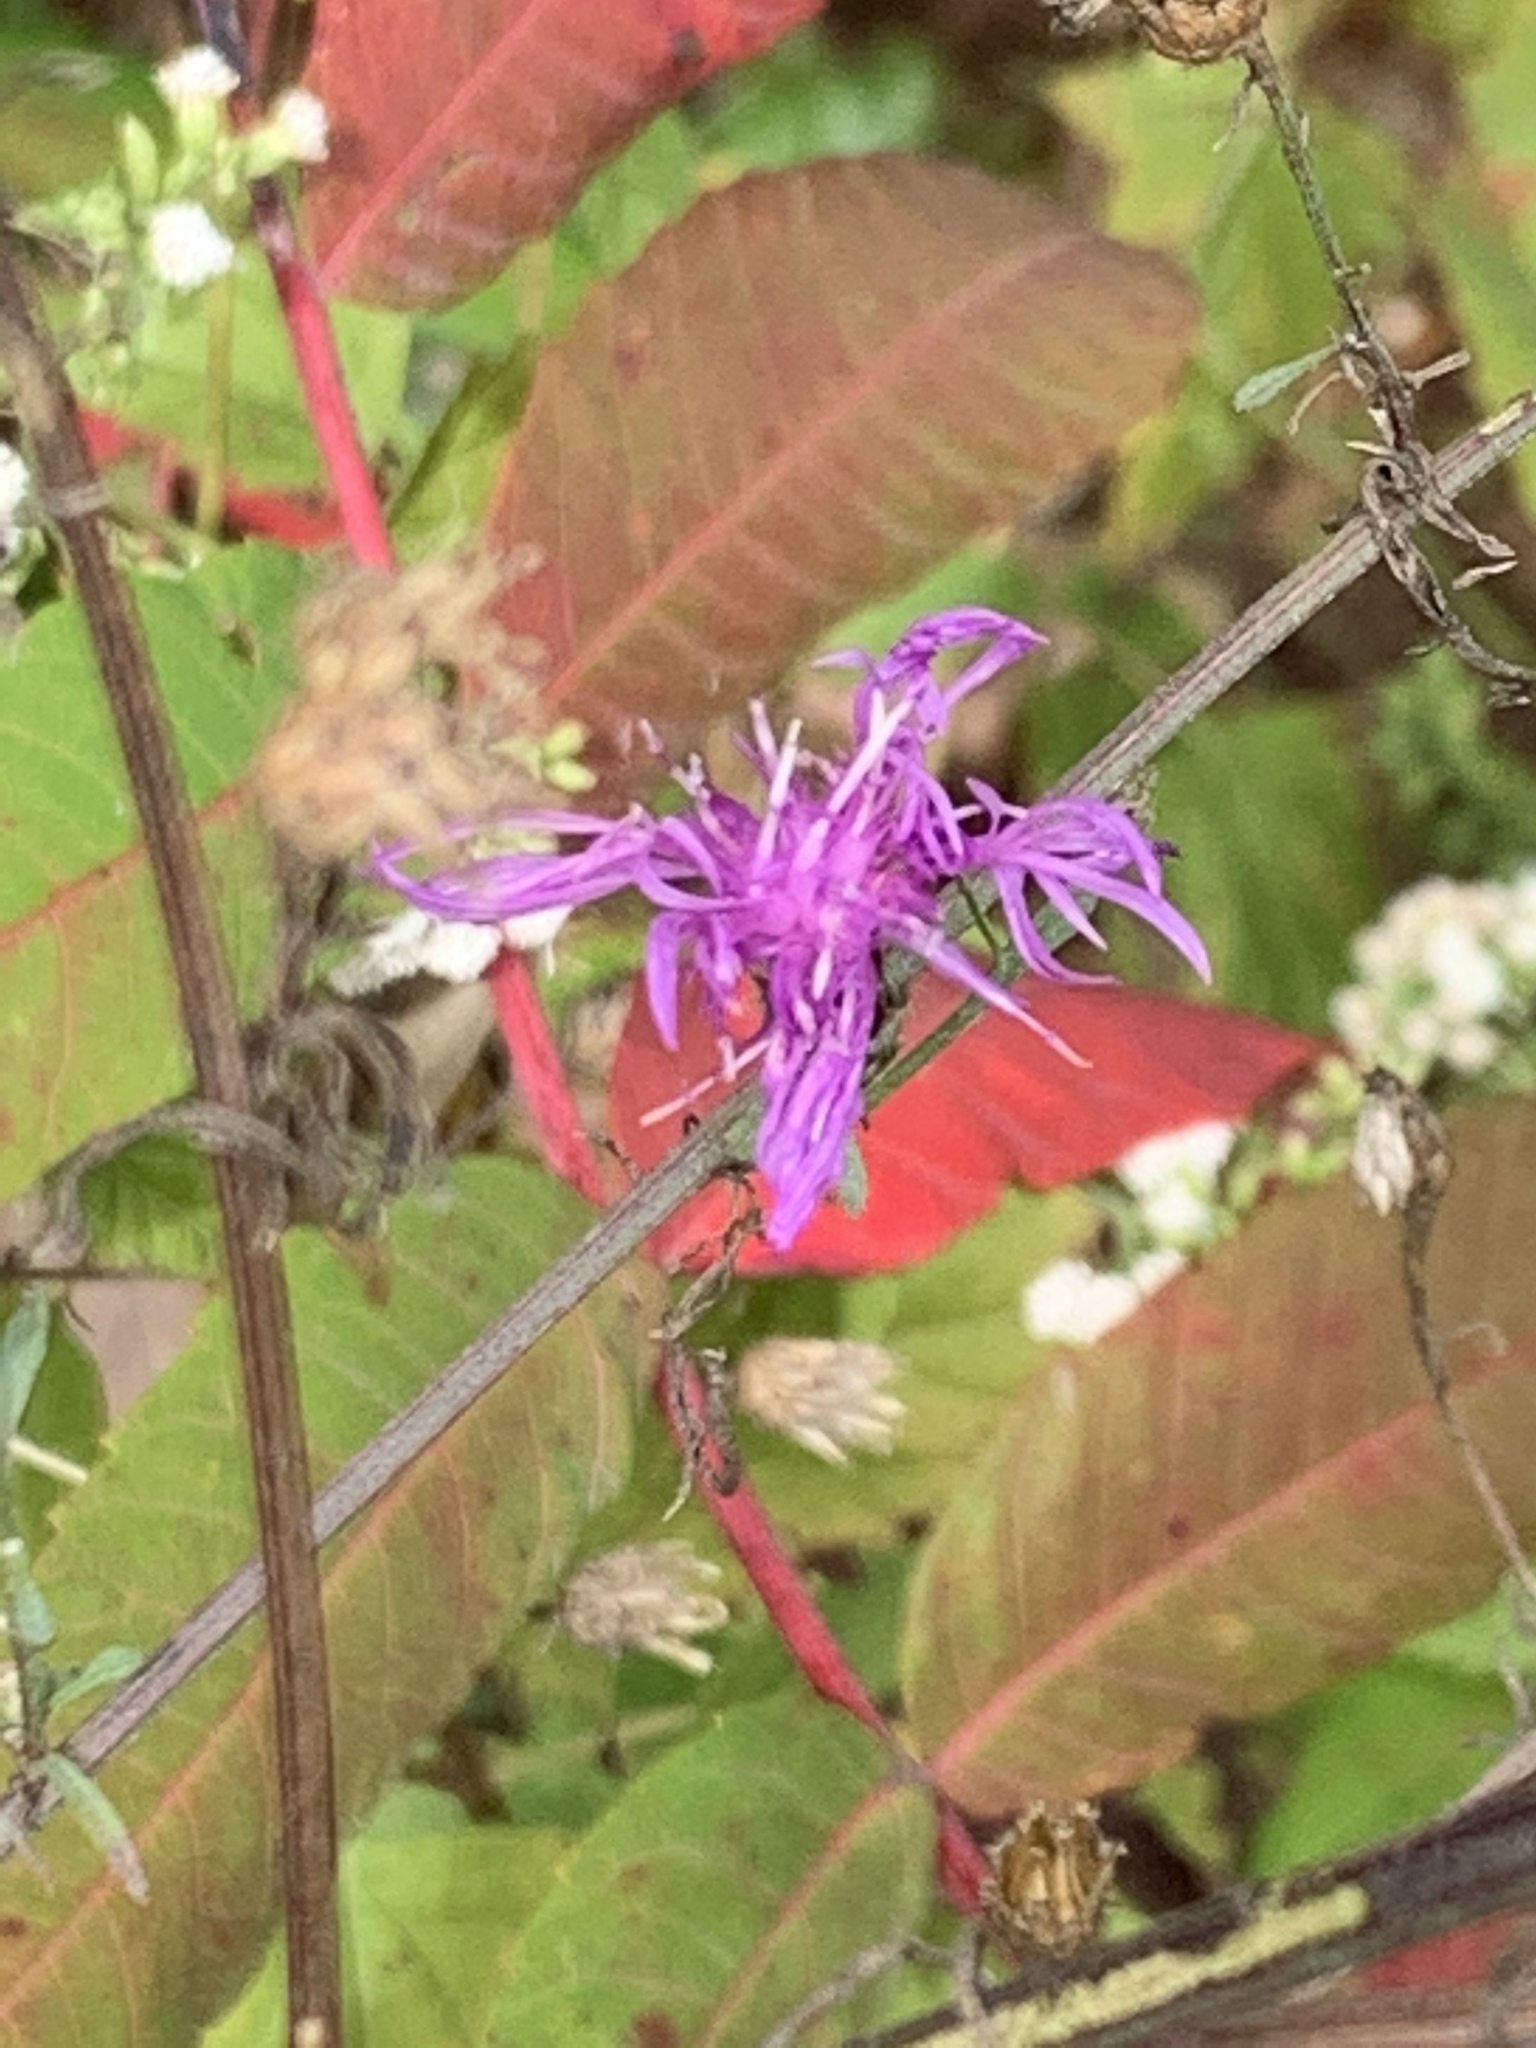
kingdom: Plantae
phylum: Tracheophyta
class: Magnoliopsida
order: Asterales
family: Asteraceae
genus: Centaurea
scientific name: Centaurea stoebe
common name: Spotted knapweed
